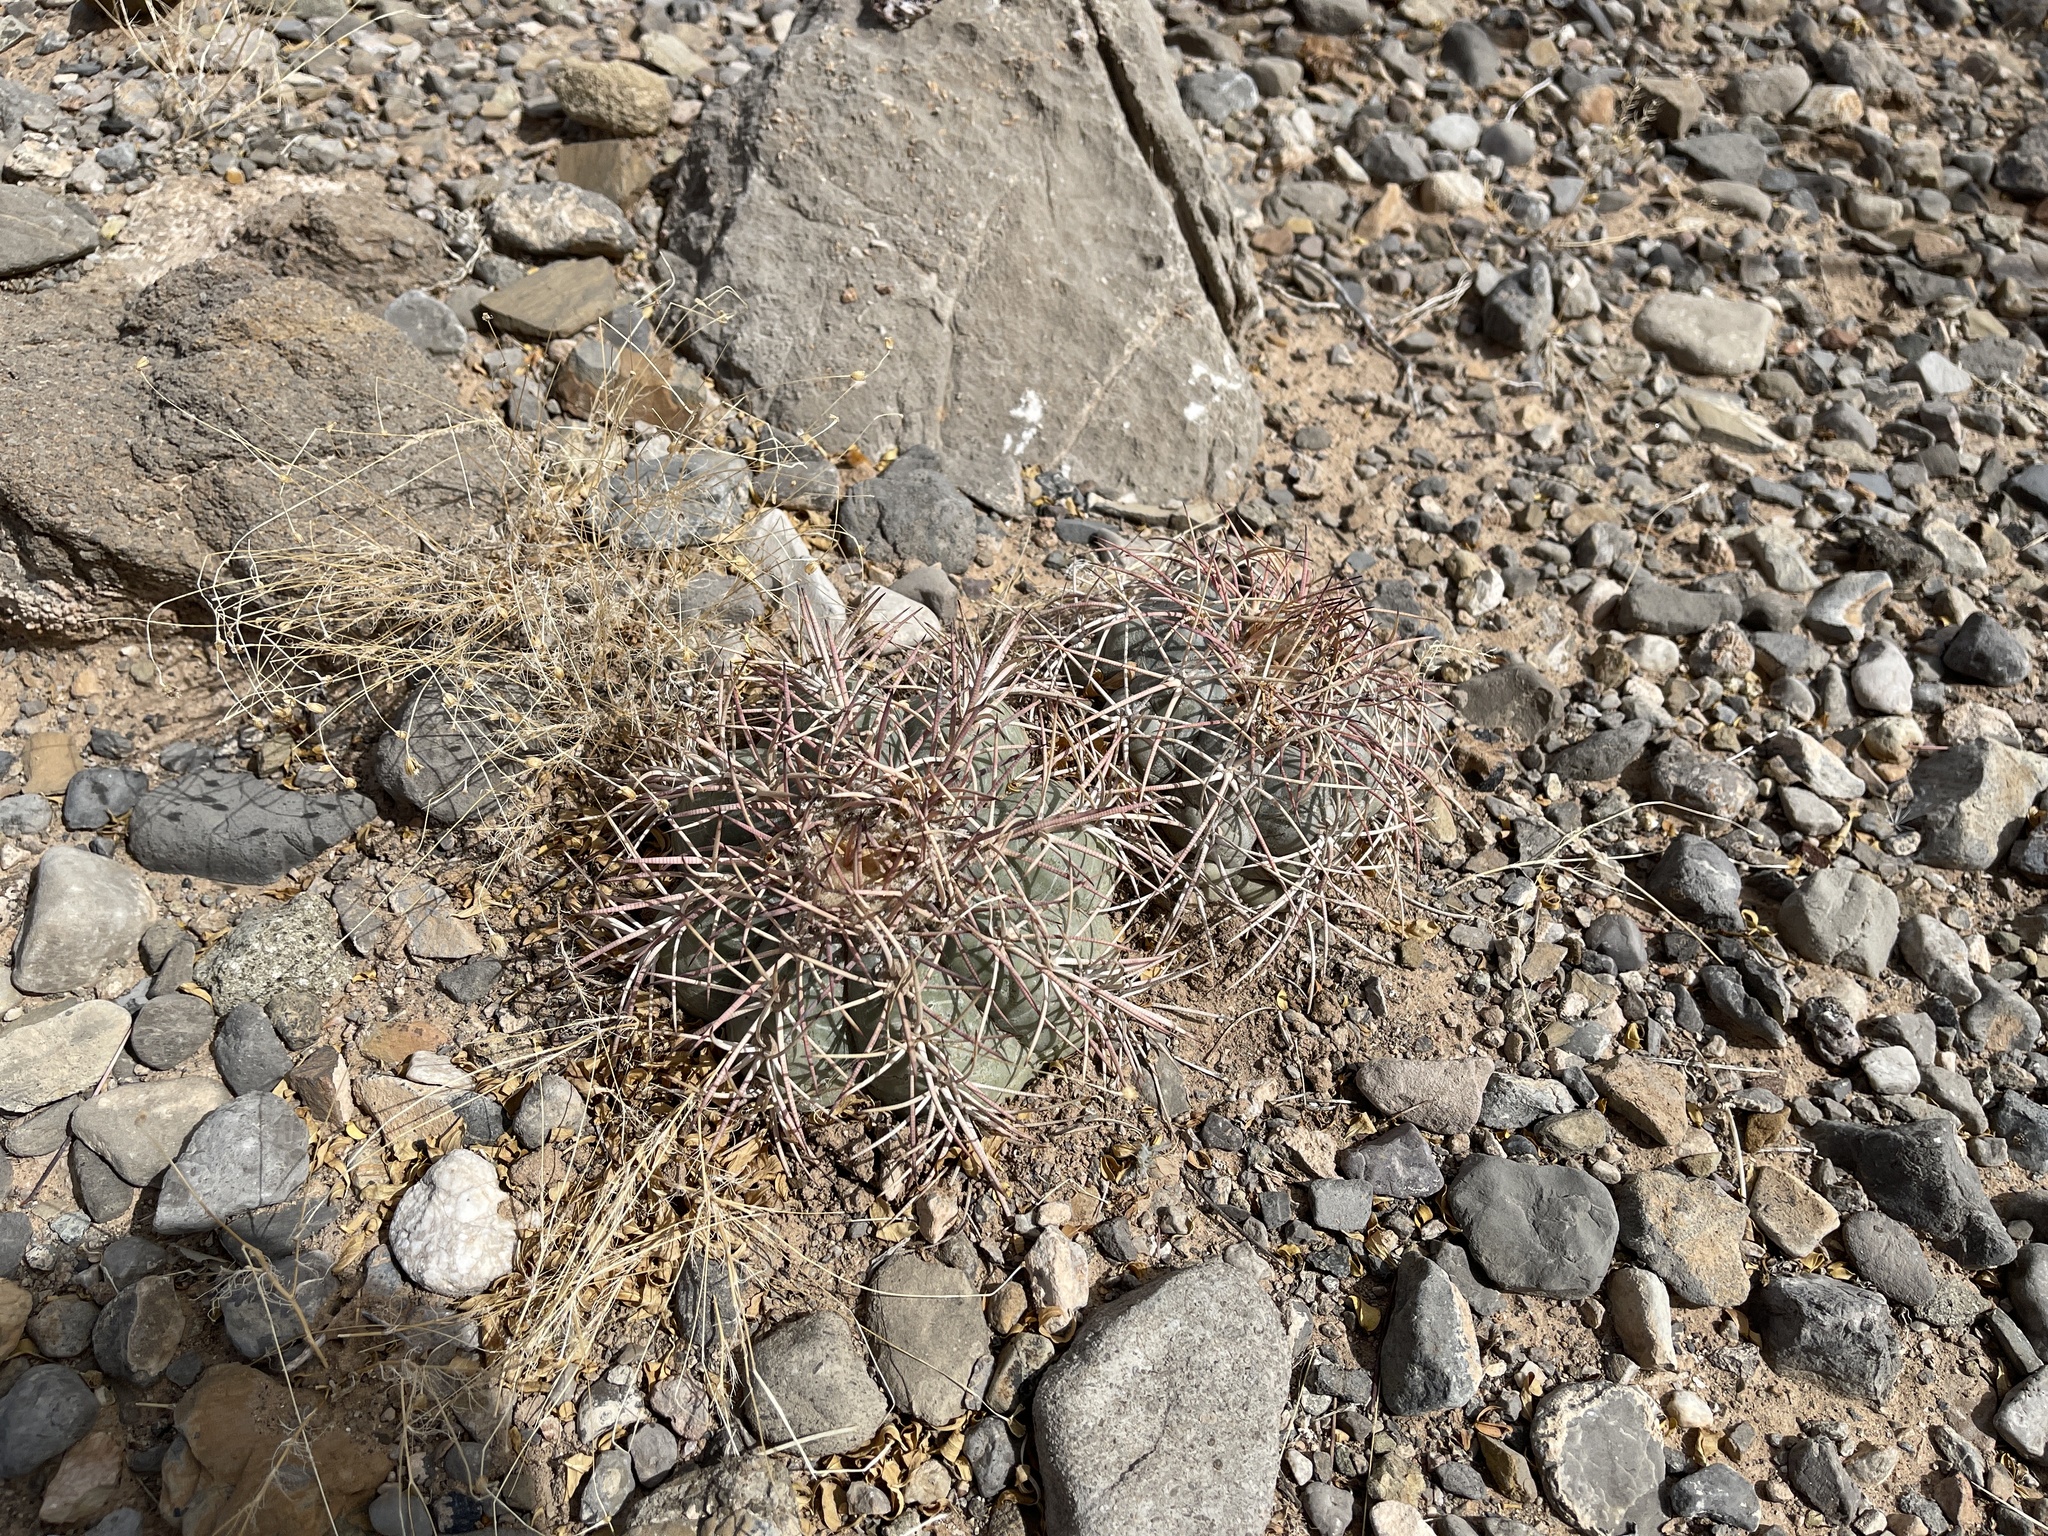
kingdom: Plantae
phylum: Tracheophyta
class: Magnoliopsida
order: Caryophyllales
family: Cactaceae
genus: Echinocactus
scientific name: Echinocactus horizonthalonius
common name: Devilshead
